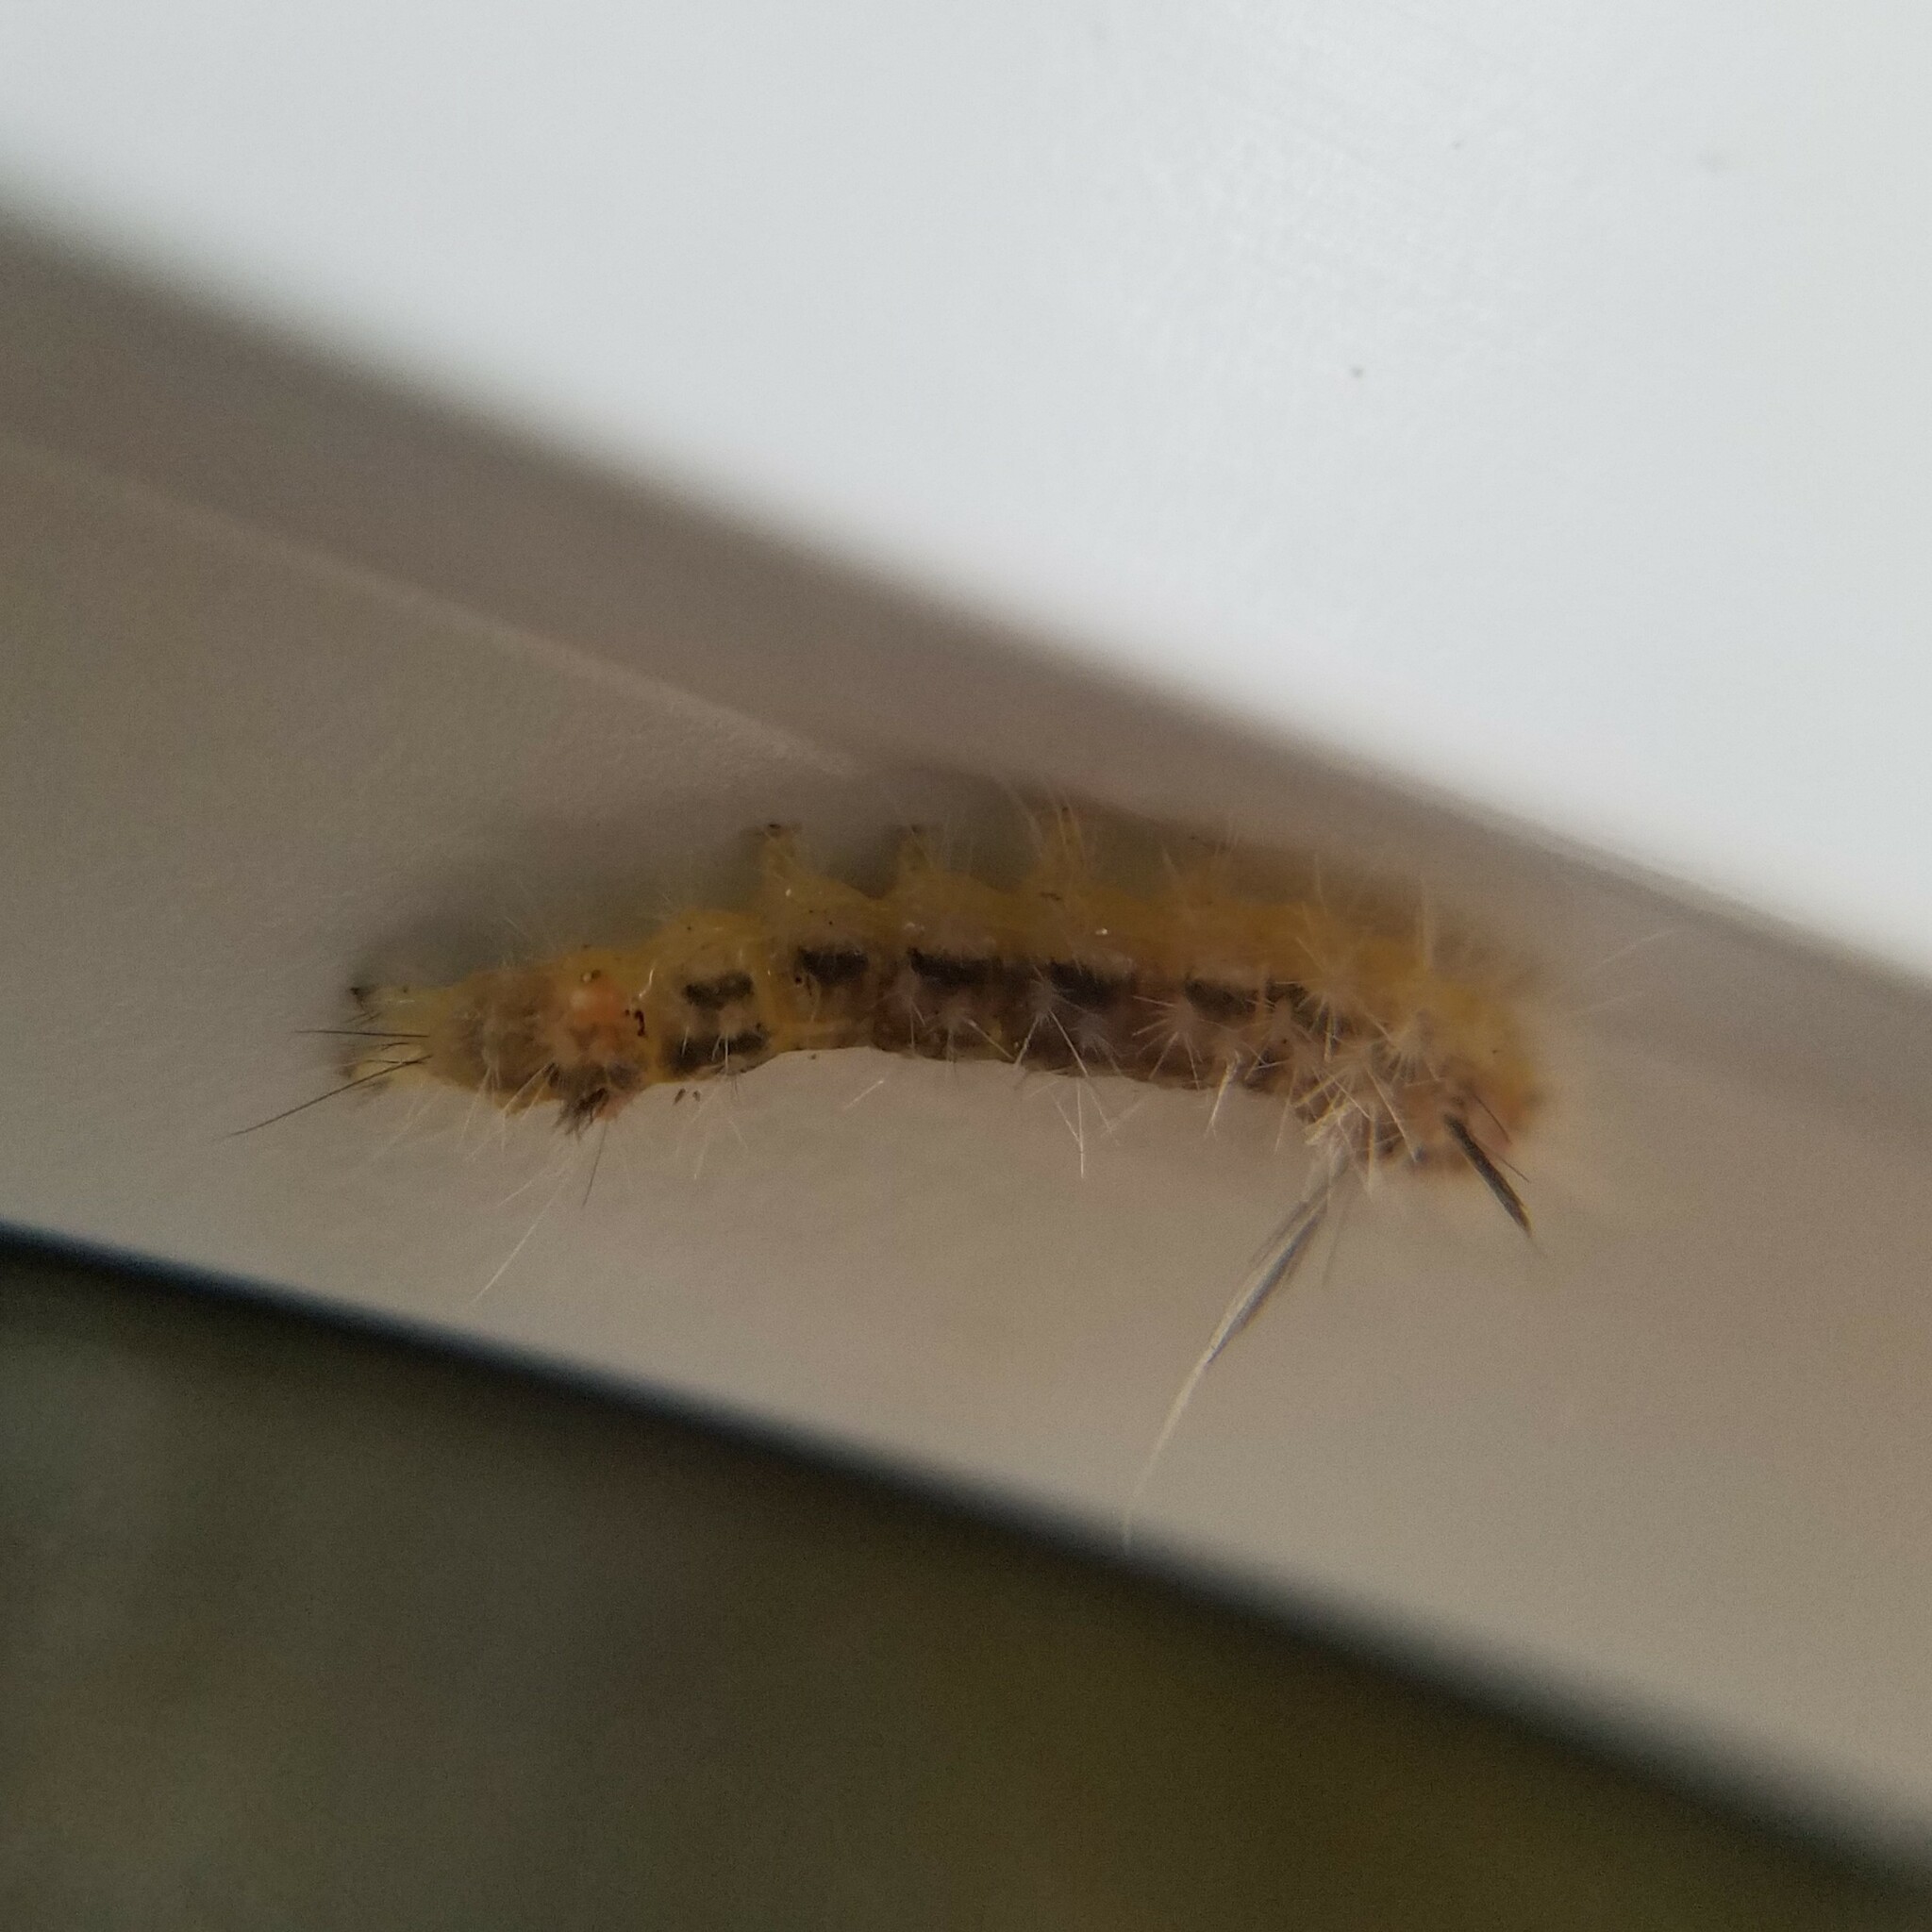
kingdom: Animalia
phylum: Arthropoda
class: Insecta
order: Lepidoptera
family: Erebidae
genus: Halysidota
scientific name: Halysidota tessellaris
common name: Banded tussock moth
